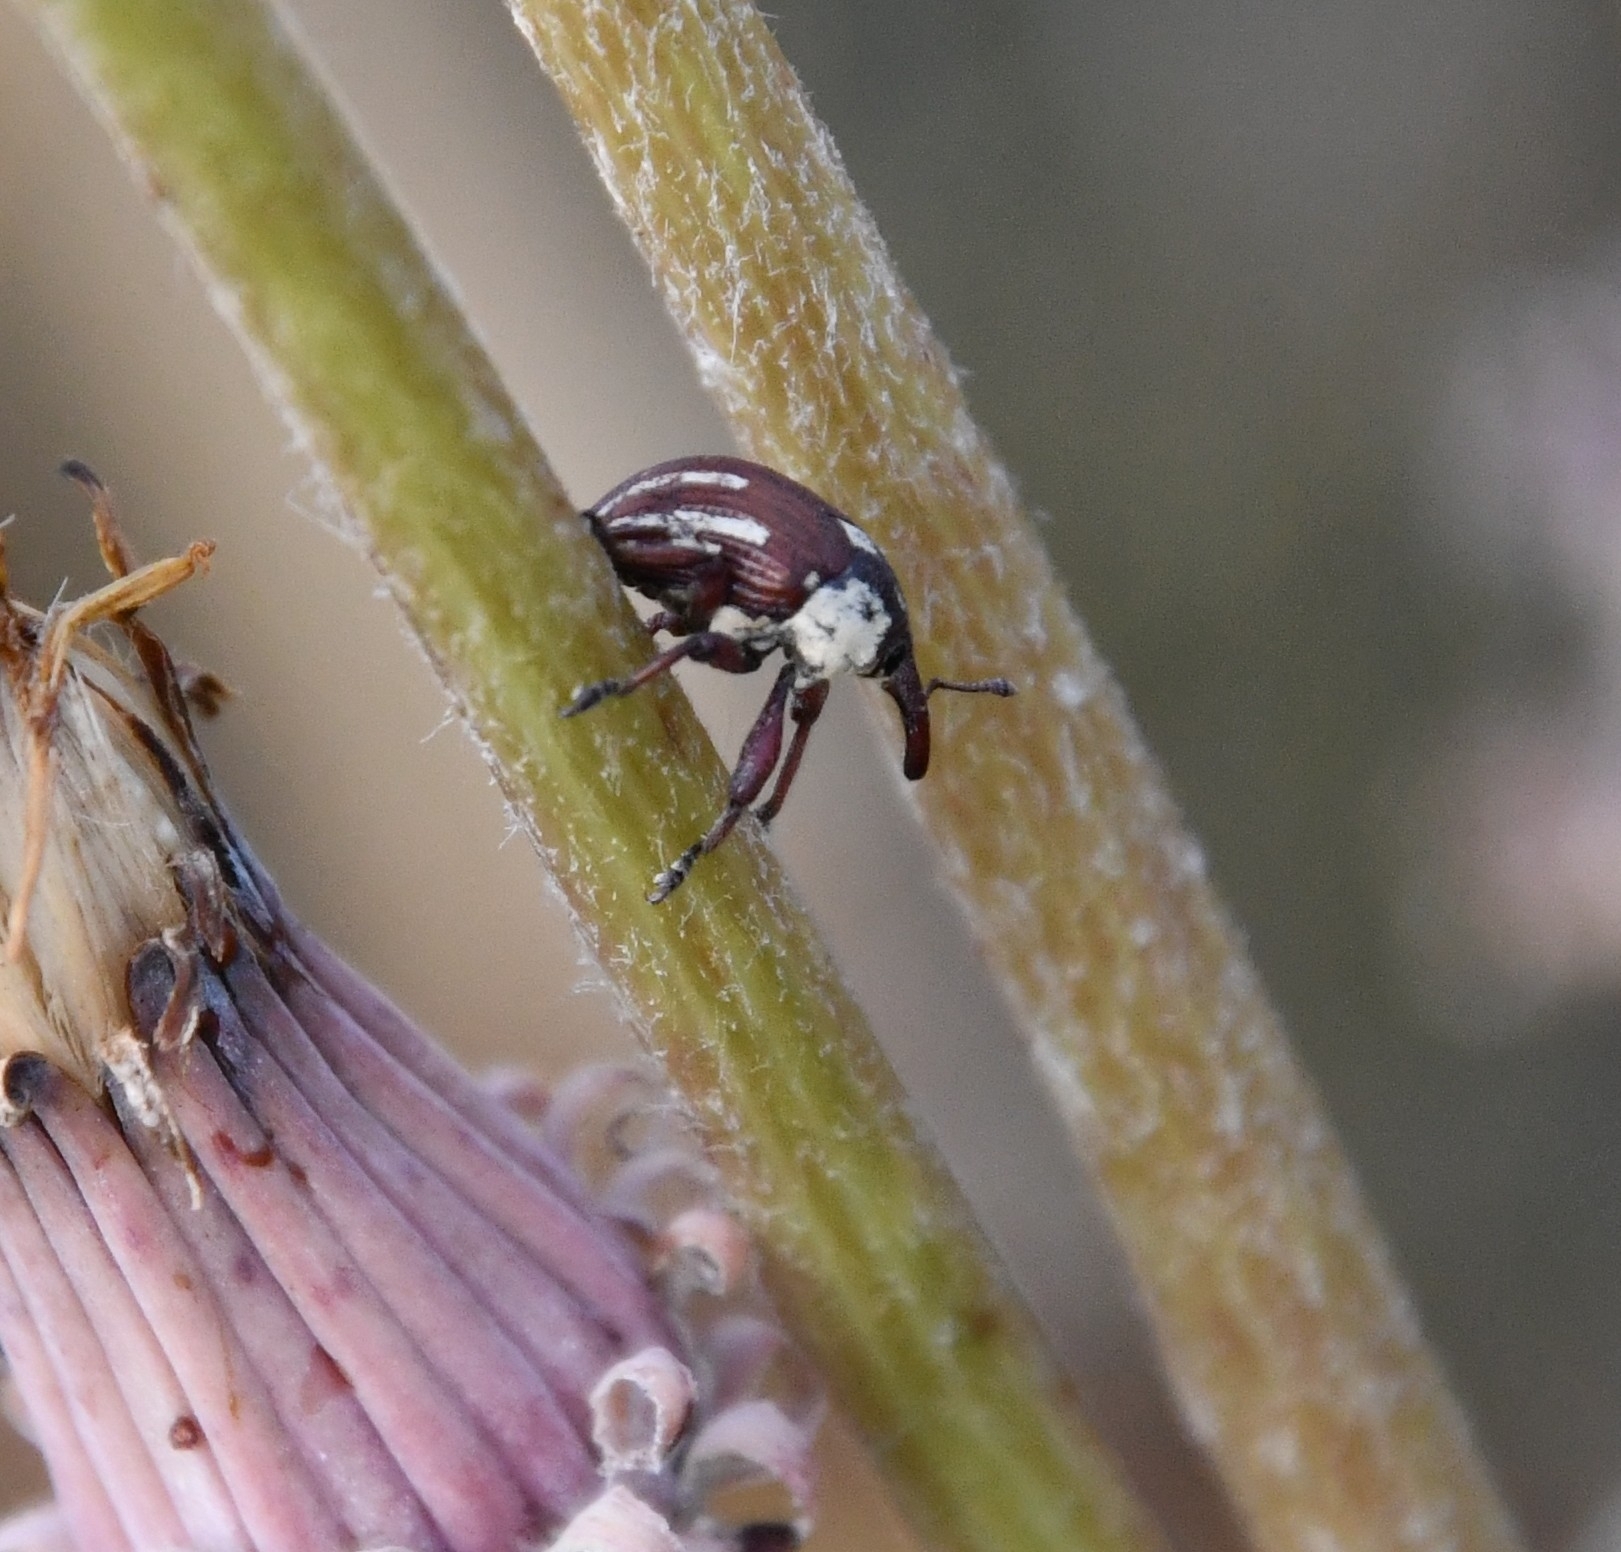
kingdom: Animalia
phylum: Arthropoda
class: Insecta
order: Coleoptera
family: Curculionidae
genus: Sternuchopsis
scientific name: Sternuchopsis
